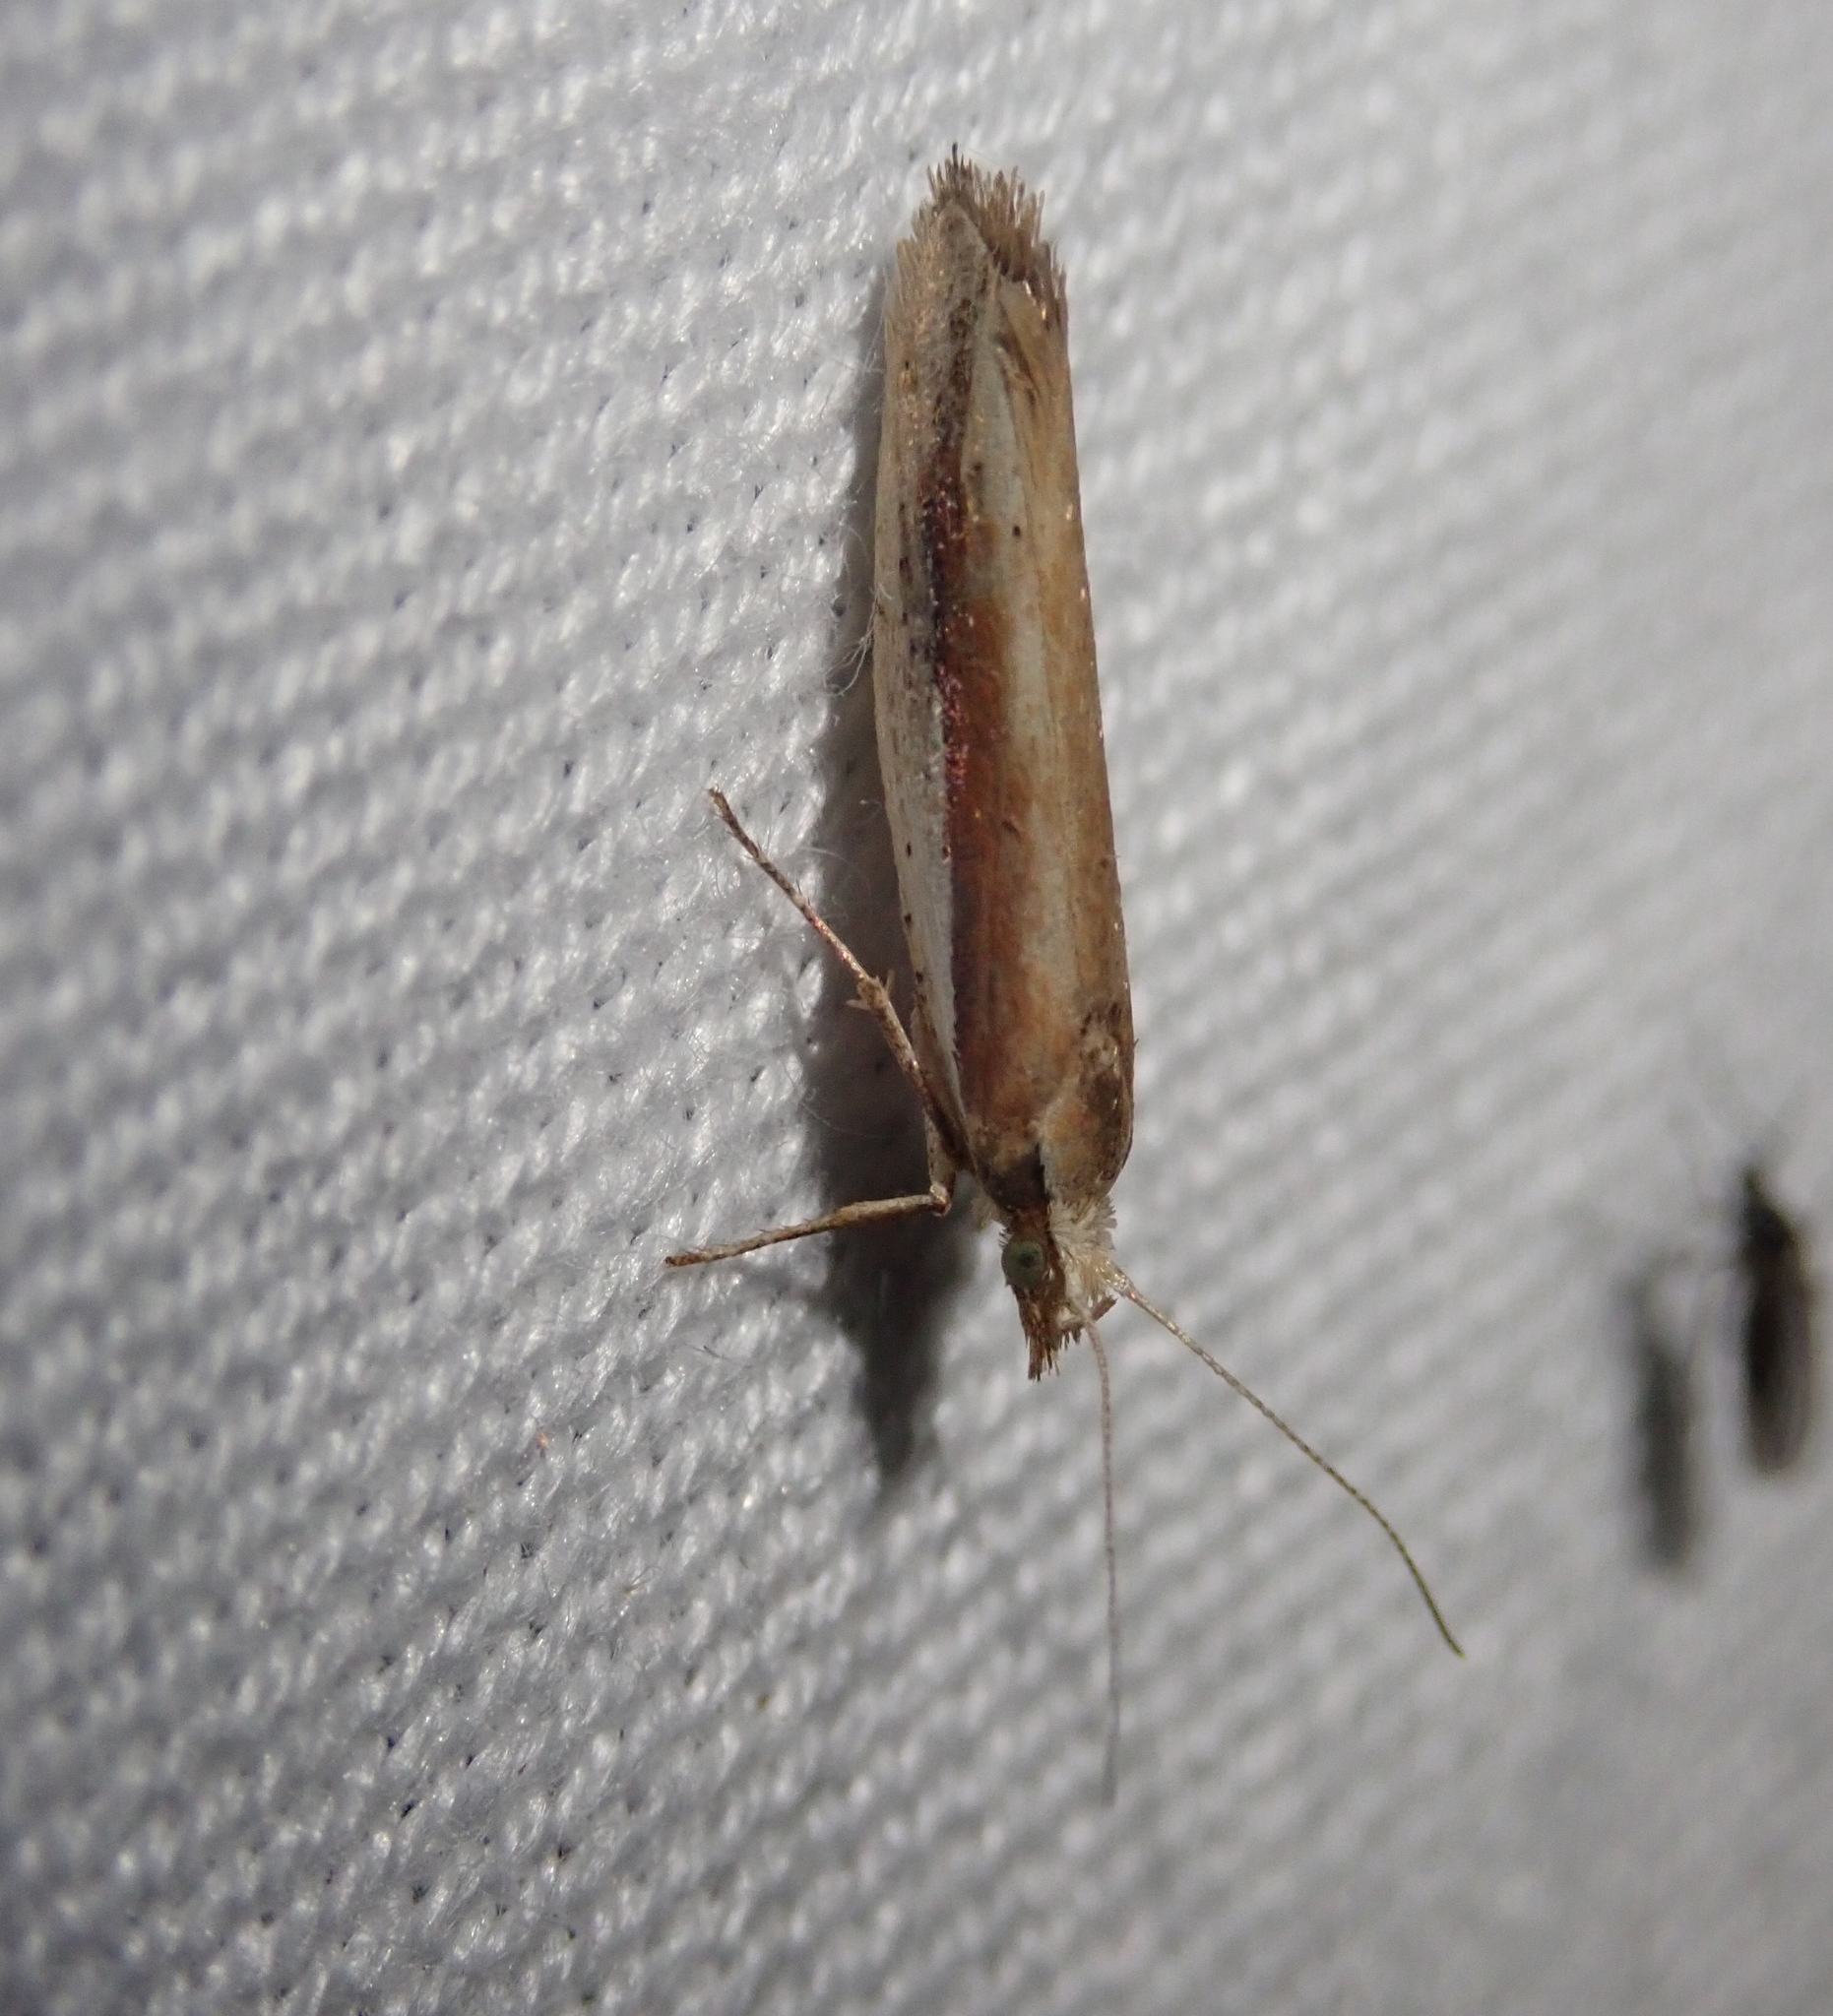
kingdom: Animalia
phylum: Arthropoda
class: Insecta
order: Lepidoptera
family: Ypsolophidae
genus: Ypsolopha
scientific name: Ypsolopha parenthesella
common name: White-shouldered smudge
